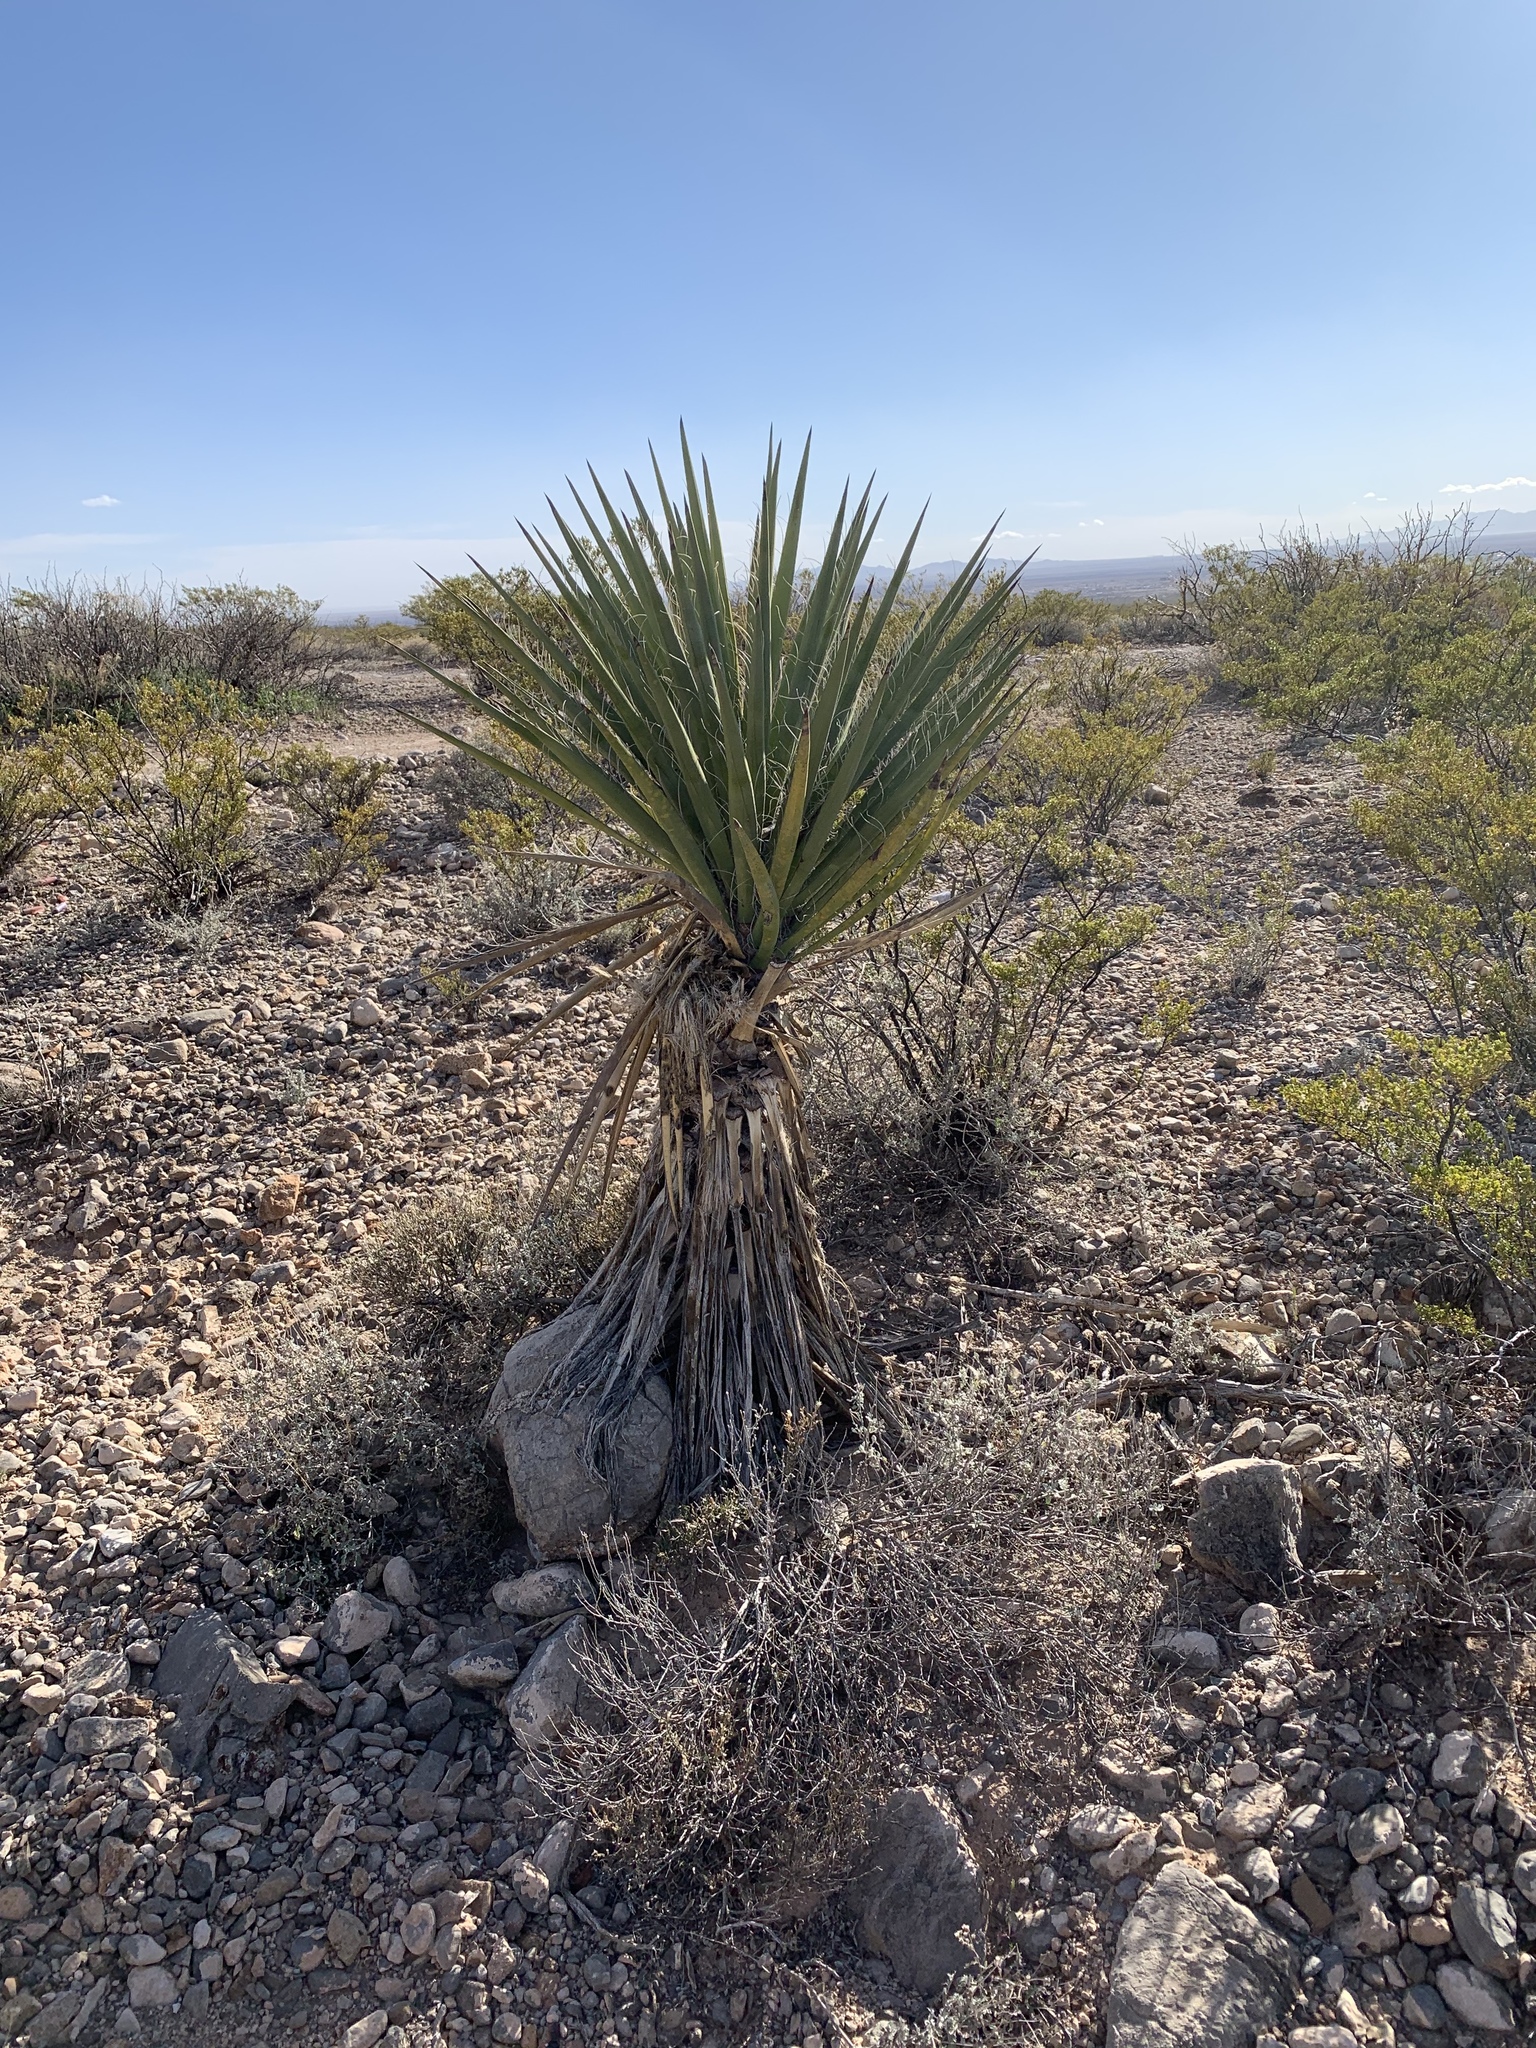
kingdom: Plantae
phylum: Tracheophyta
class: Liliopsida
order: Asparagales
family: Asparagaceae
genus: Yucca
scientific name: Yucca treculiana
